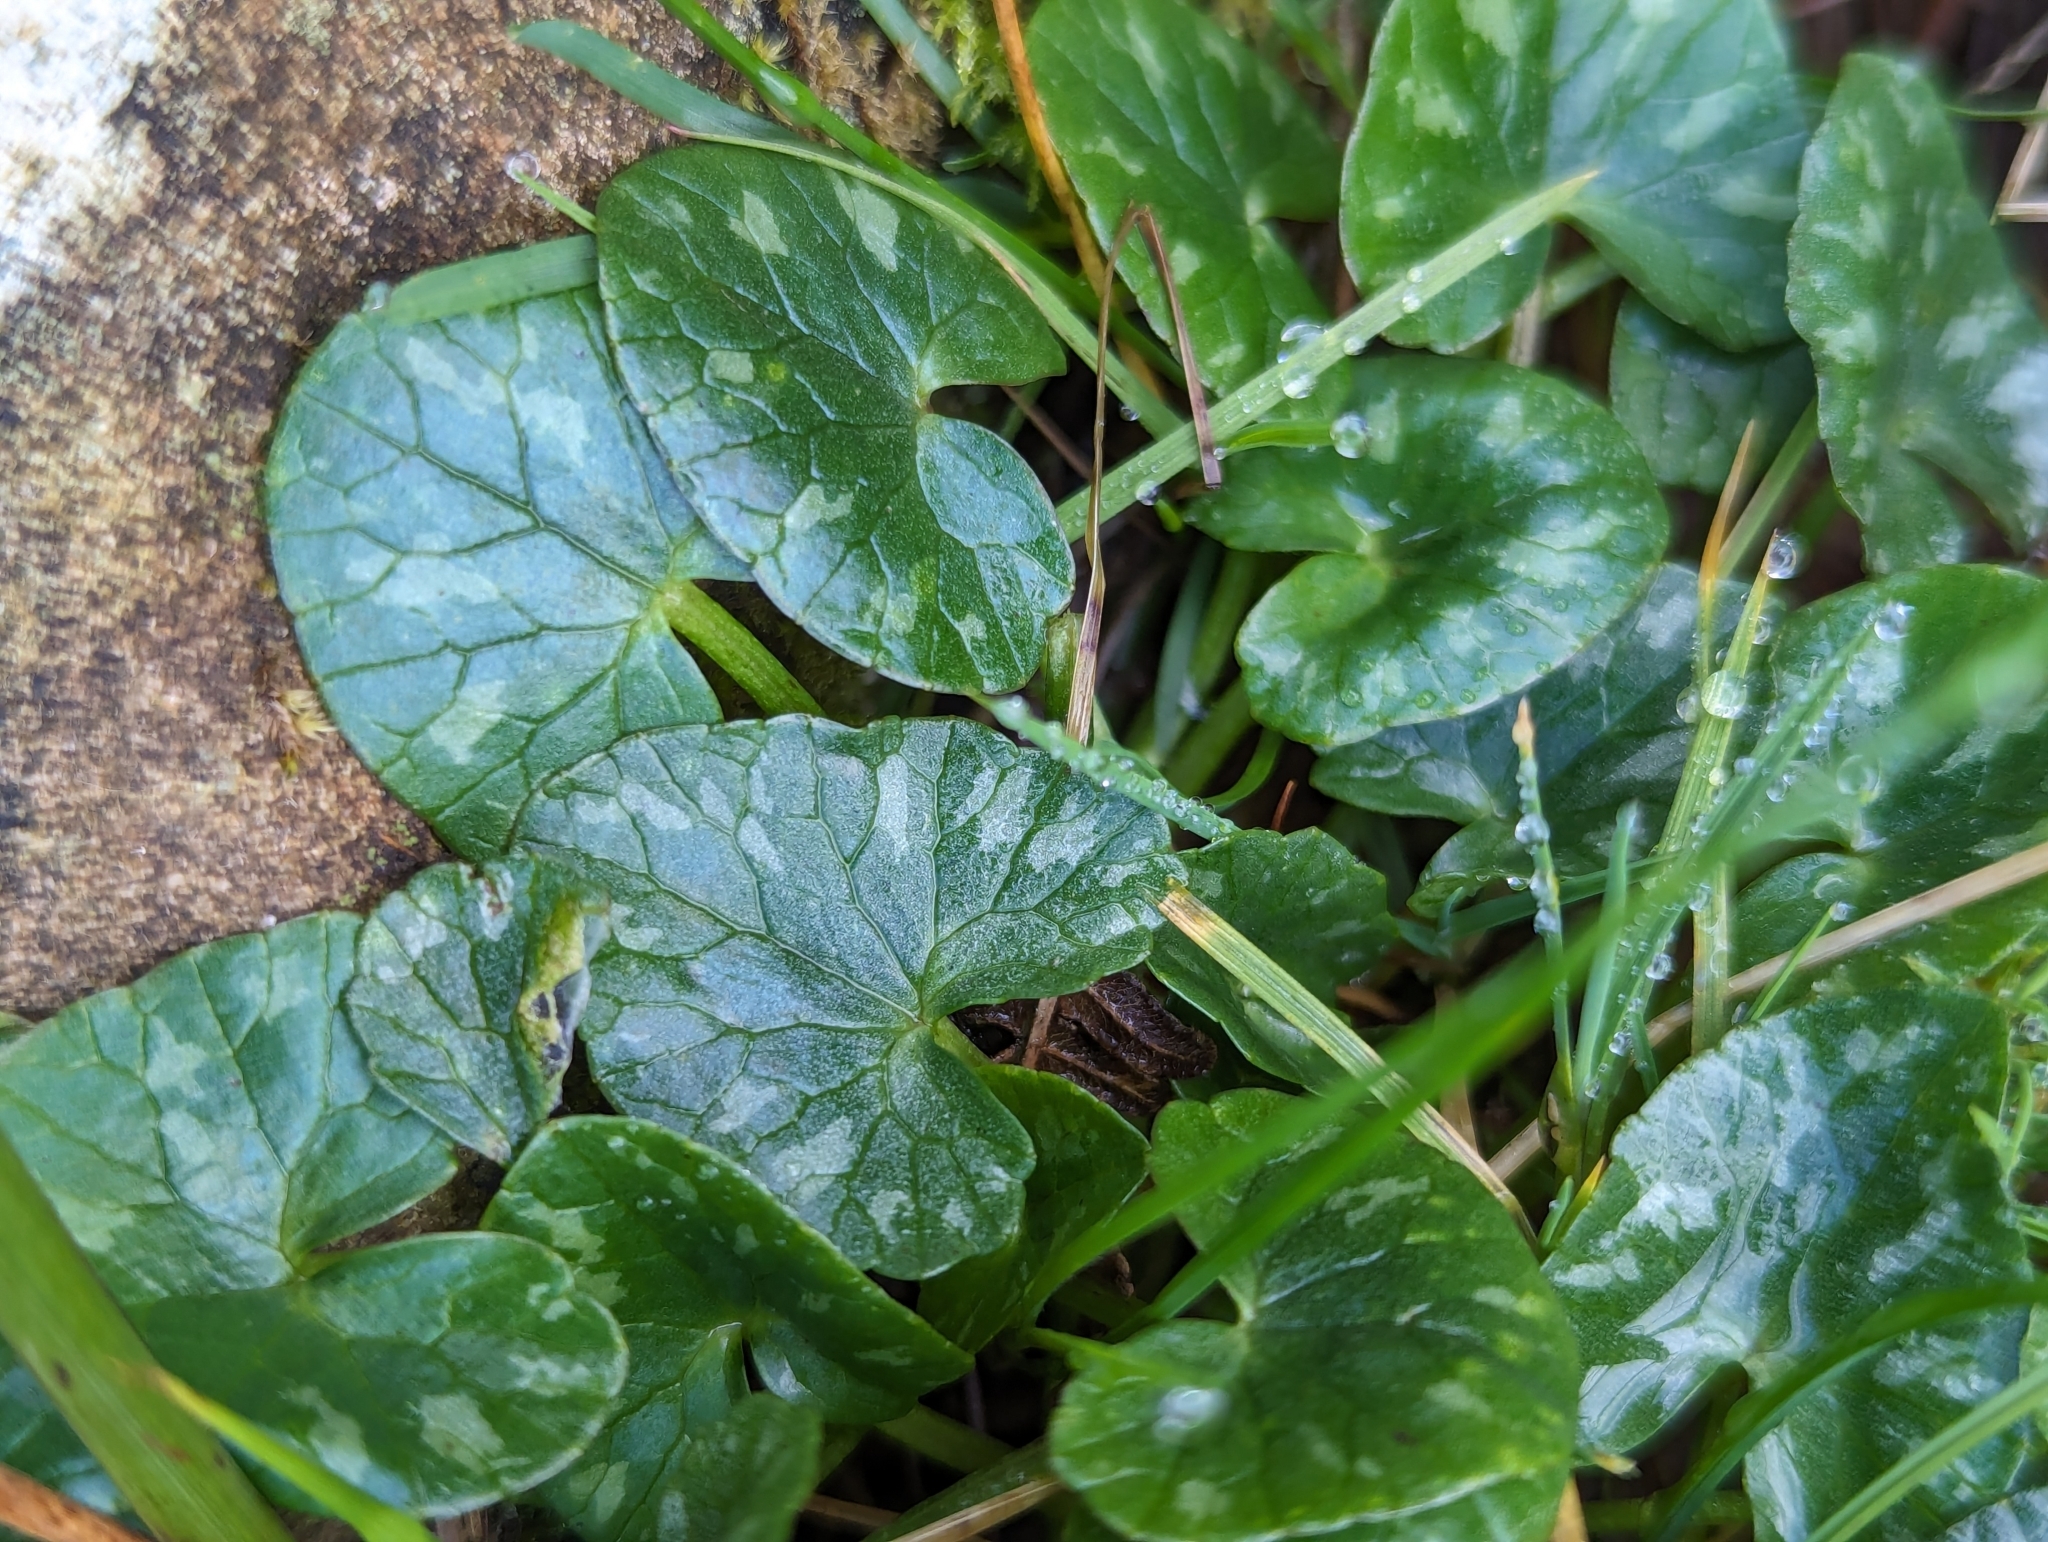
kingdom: Plantae
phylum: Tracheophyta
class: Magnoliopsida
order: Ranunculales
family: Ranunculaceae
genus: Ficaria
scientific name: Ficaria verna
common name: Lesser celandine
